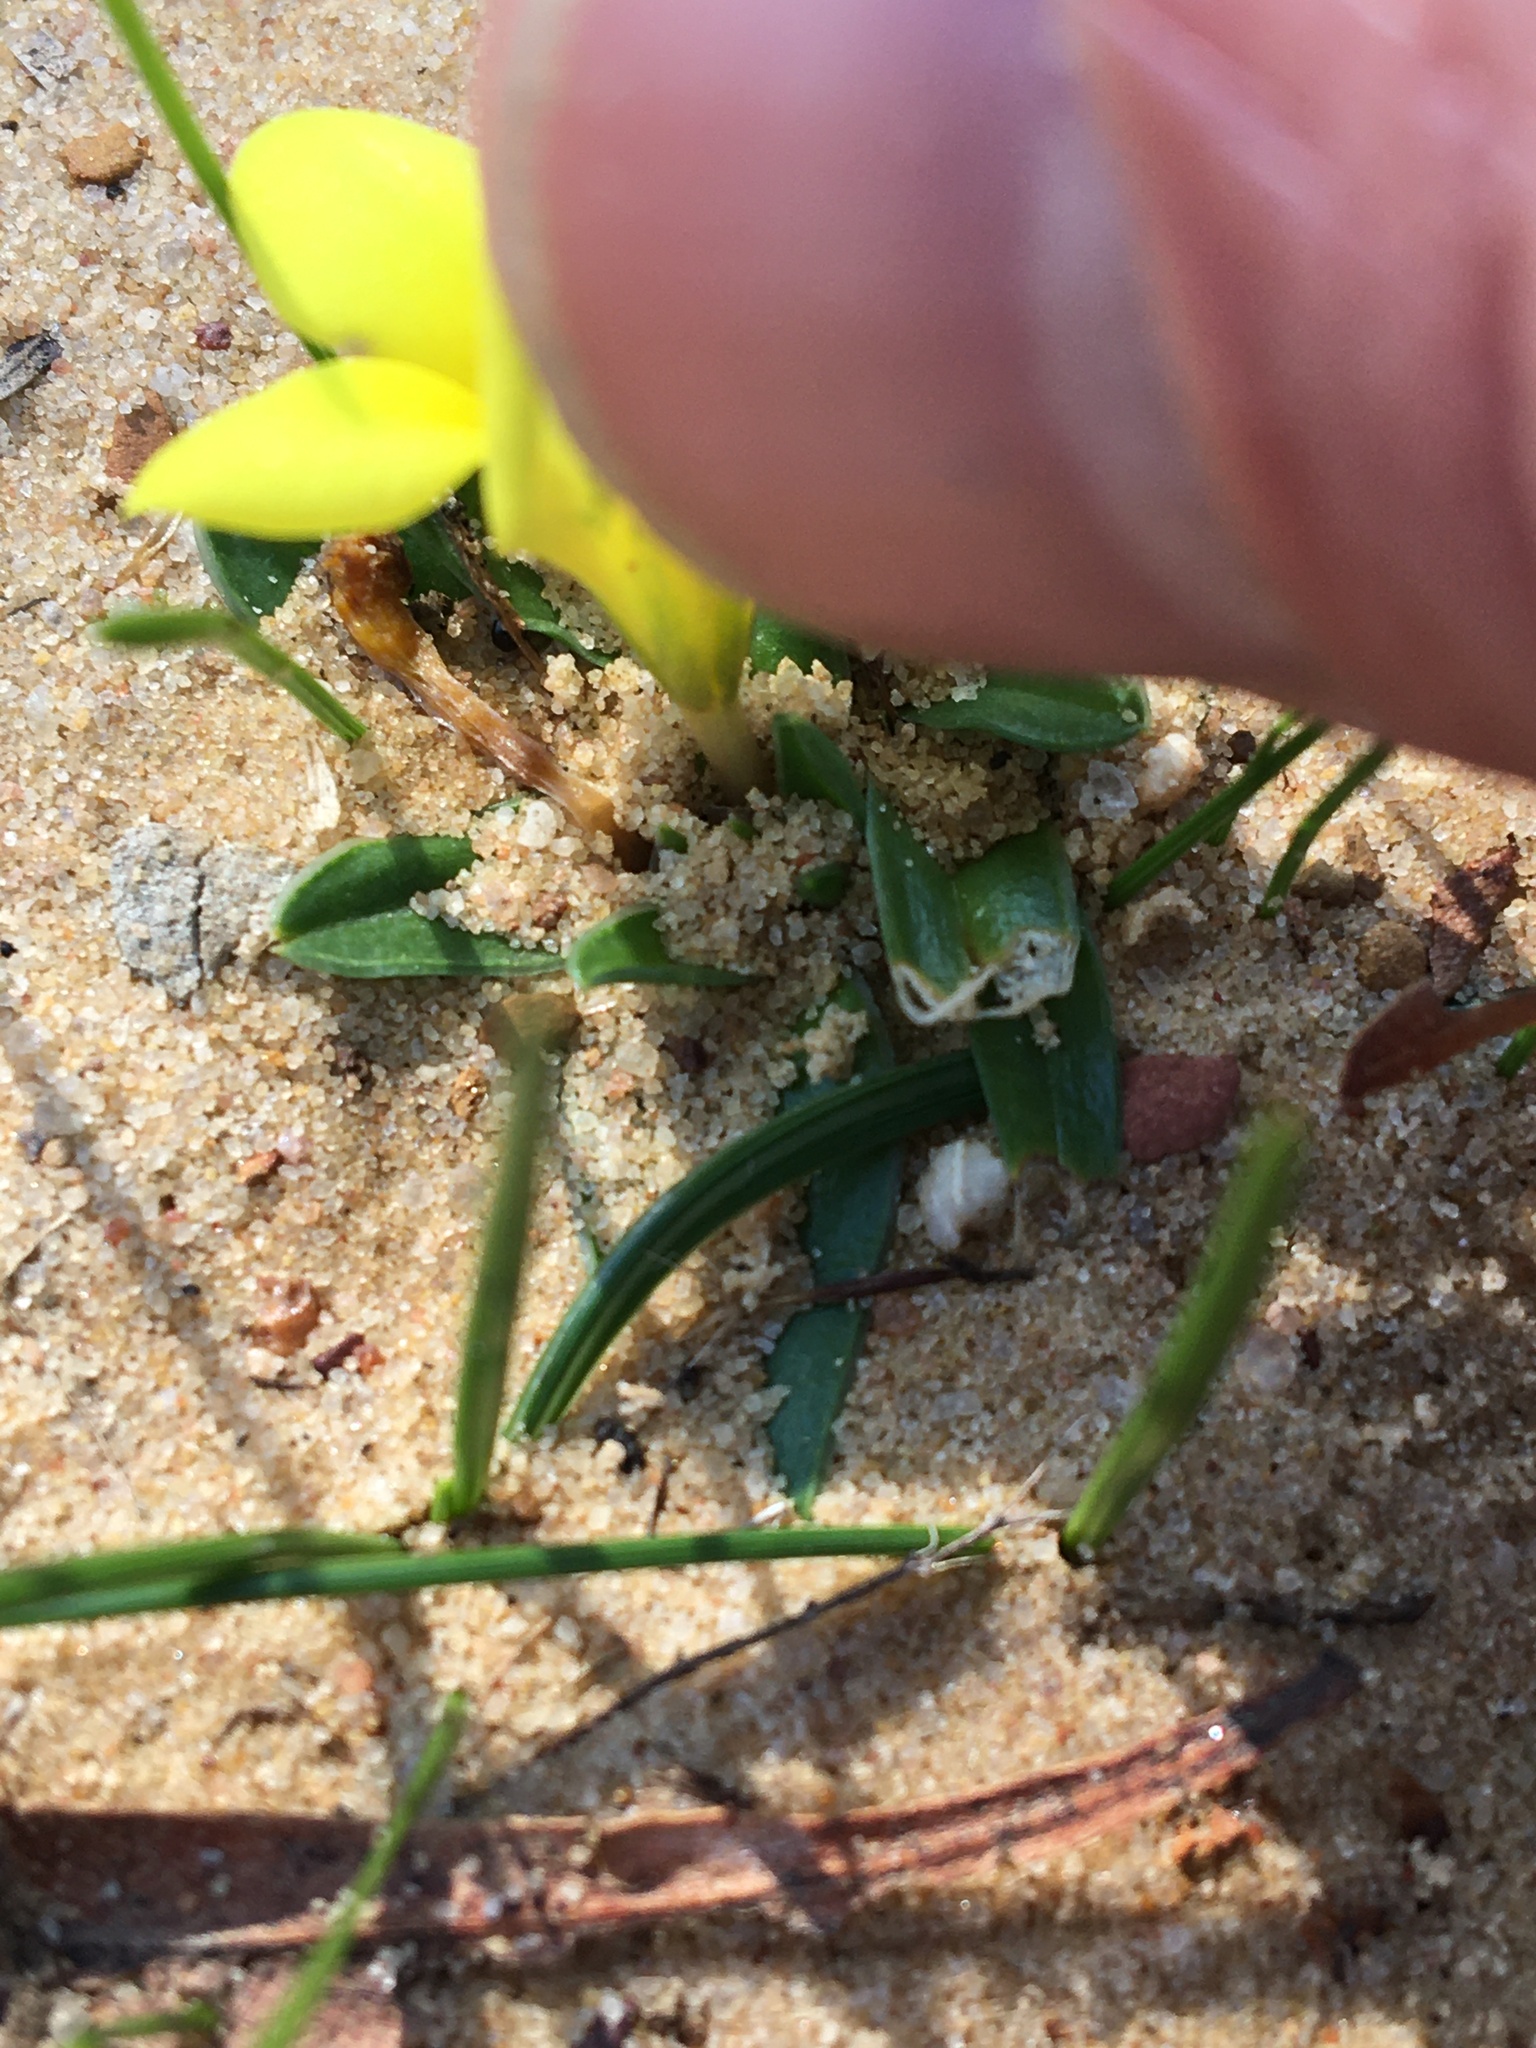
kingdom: Plantae
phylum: Tracheophyta
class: Liliopsida
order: Asparagales
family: Iridaceae
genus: Moraea
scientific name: Moraea galaxia
